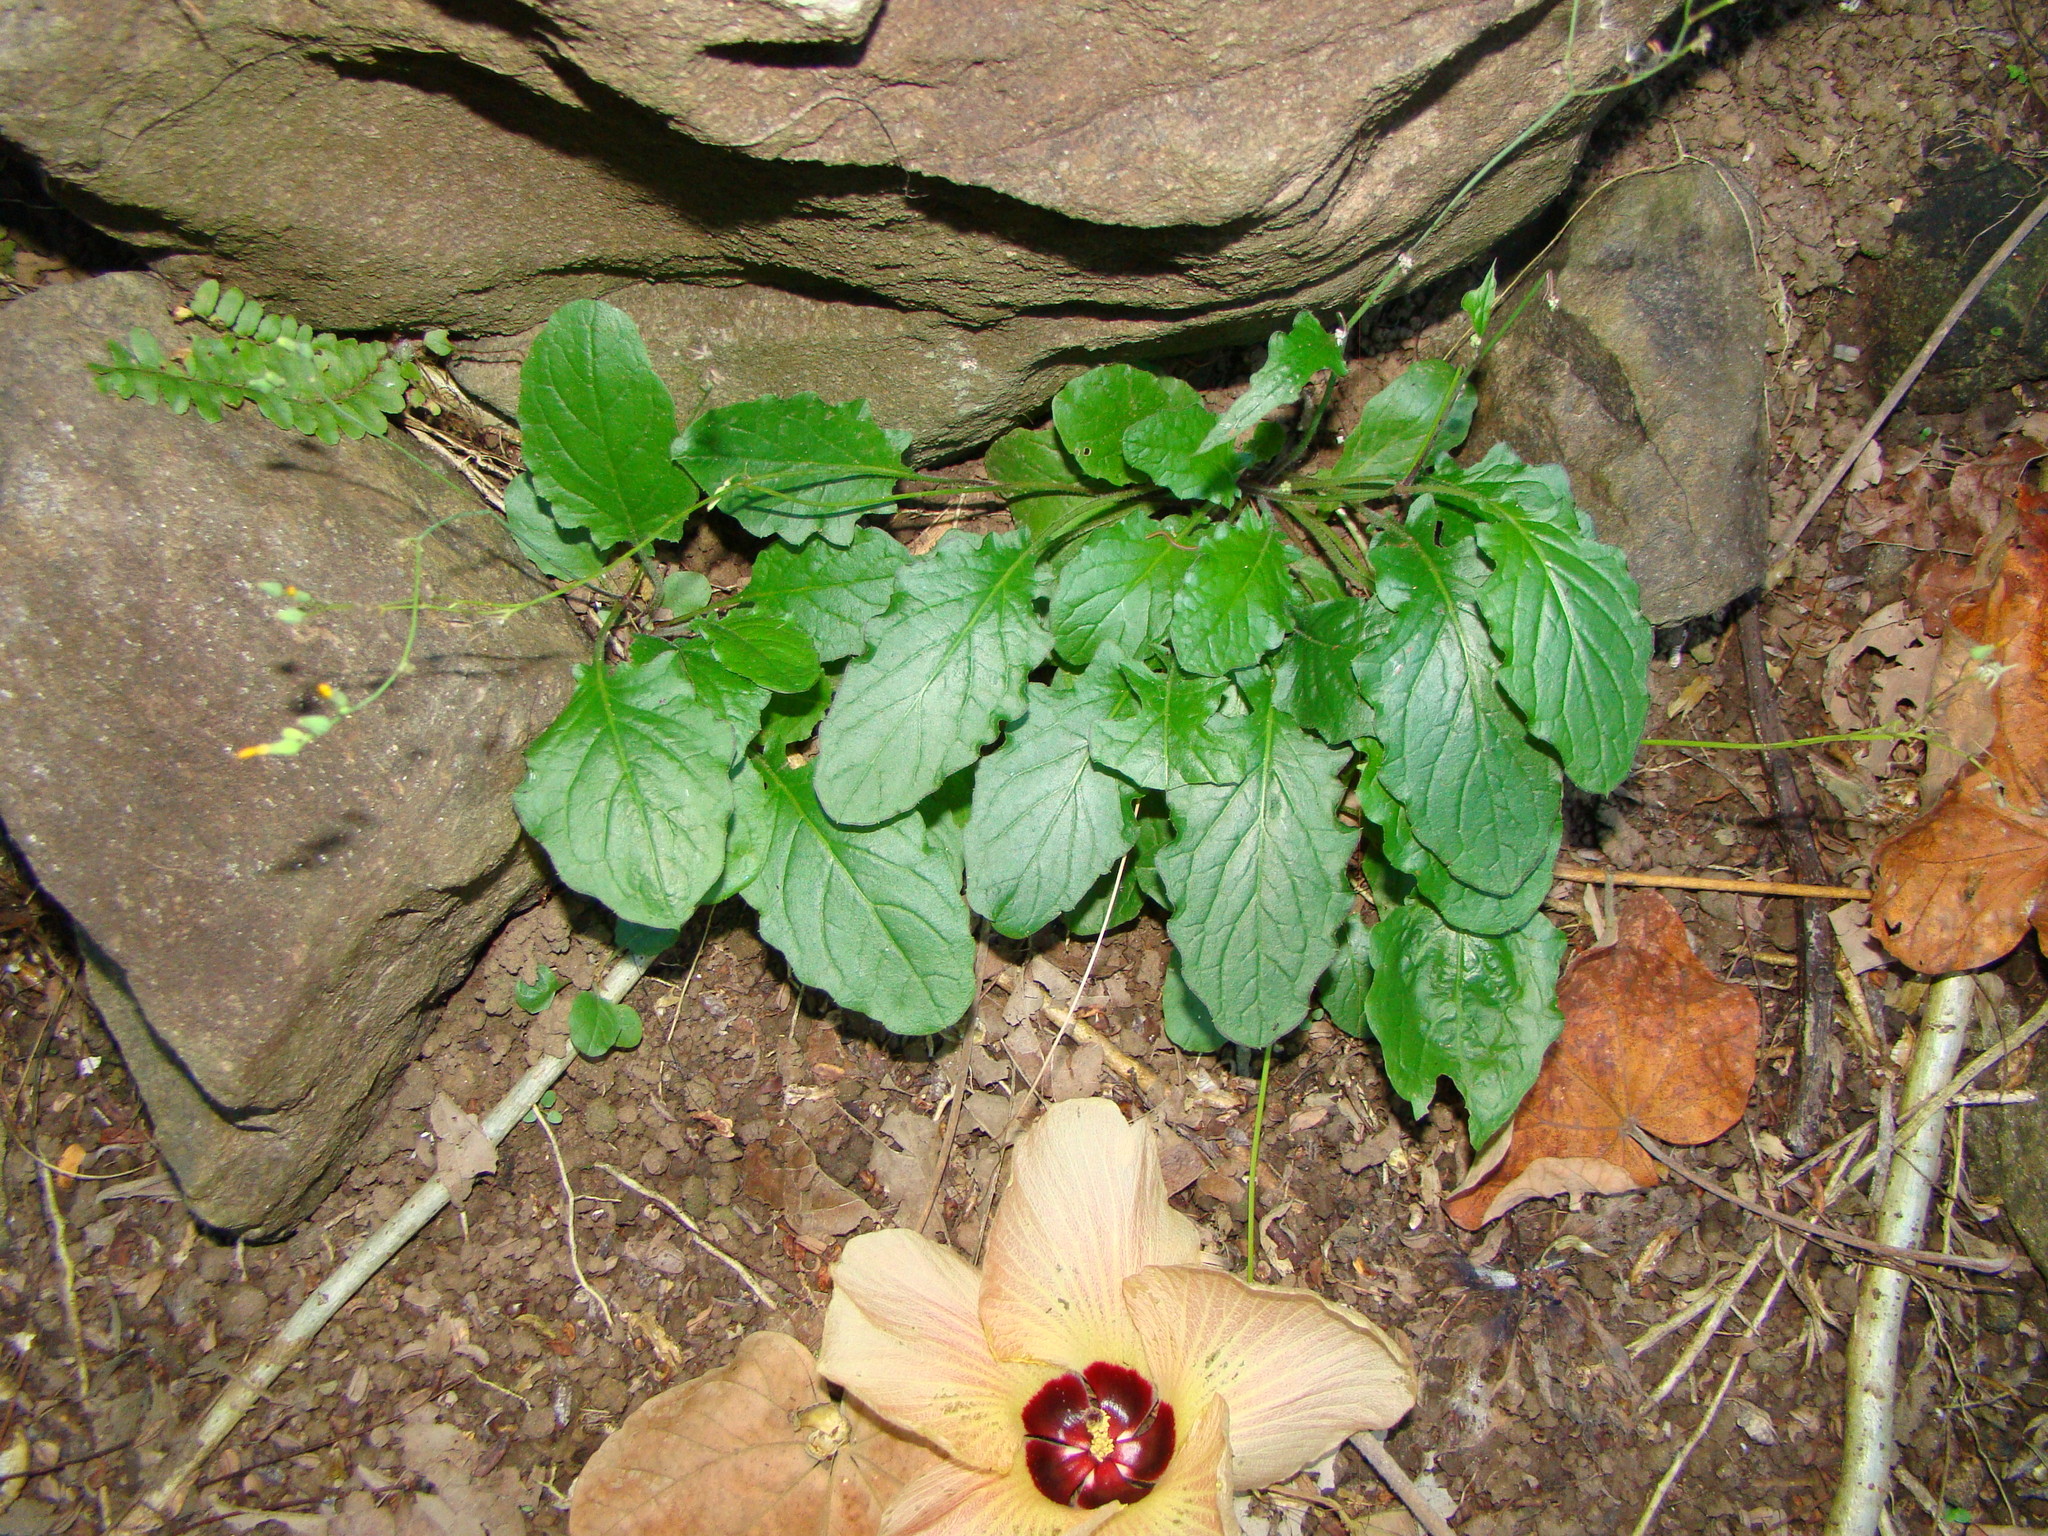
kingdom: Plantae
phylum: Tracheophyta
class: Magnoliopsida
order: Asterales
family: Asteraceae
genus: Youngia
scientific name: Youngia japonica
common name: Oriental false hawksbeard
